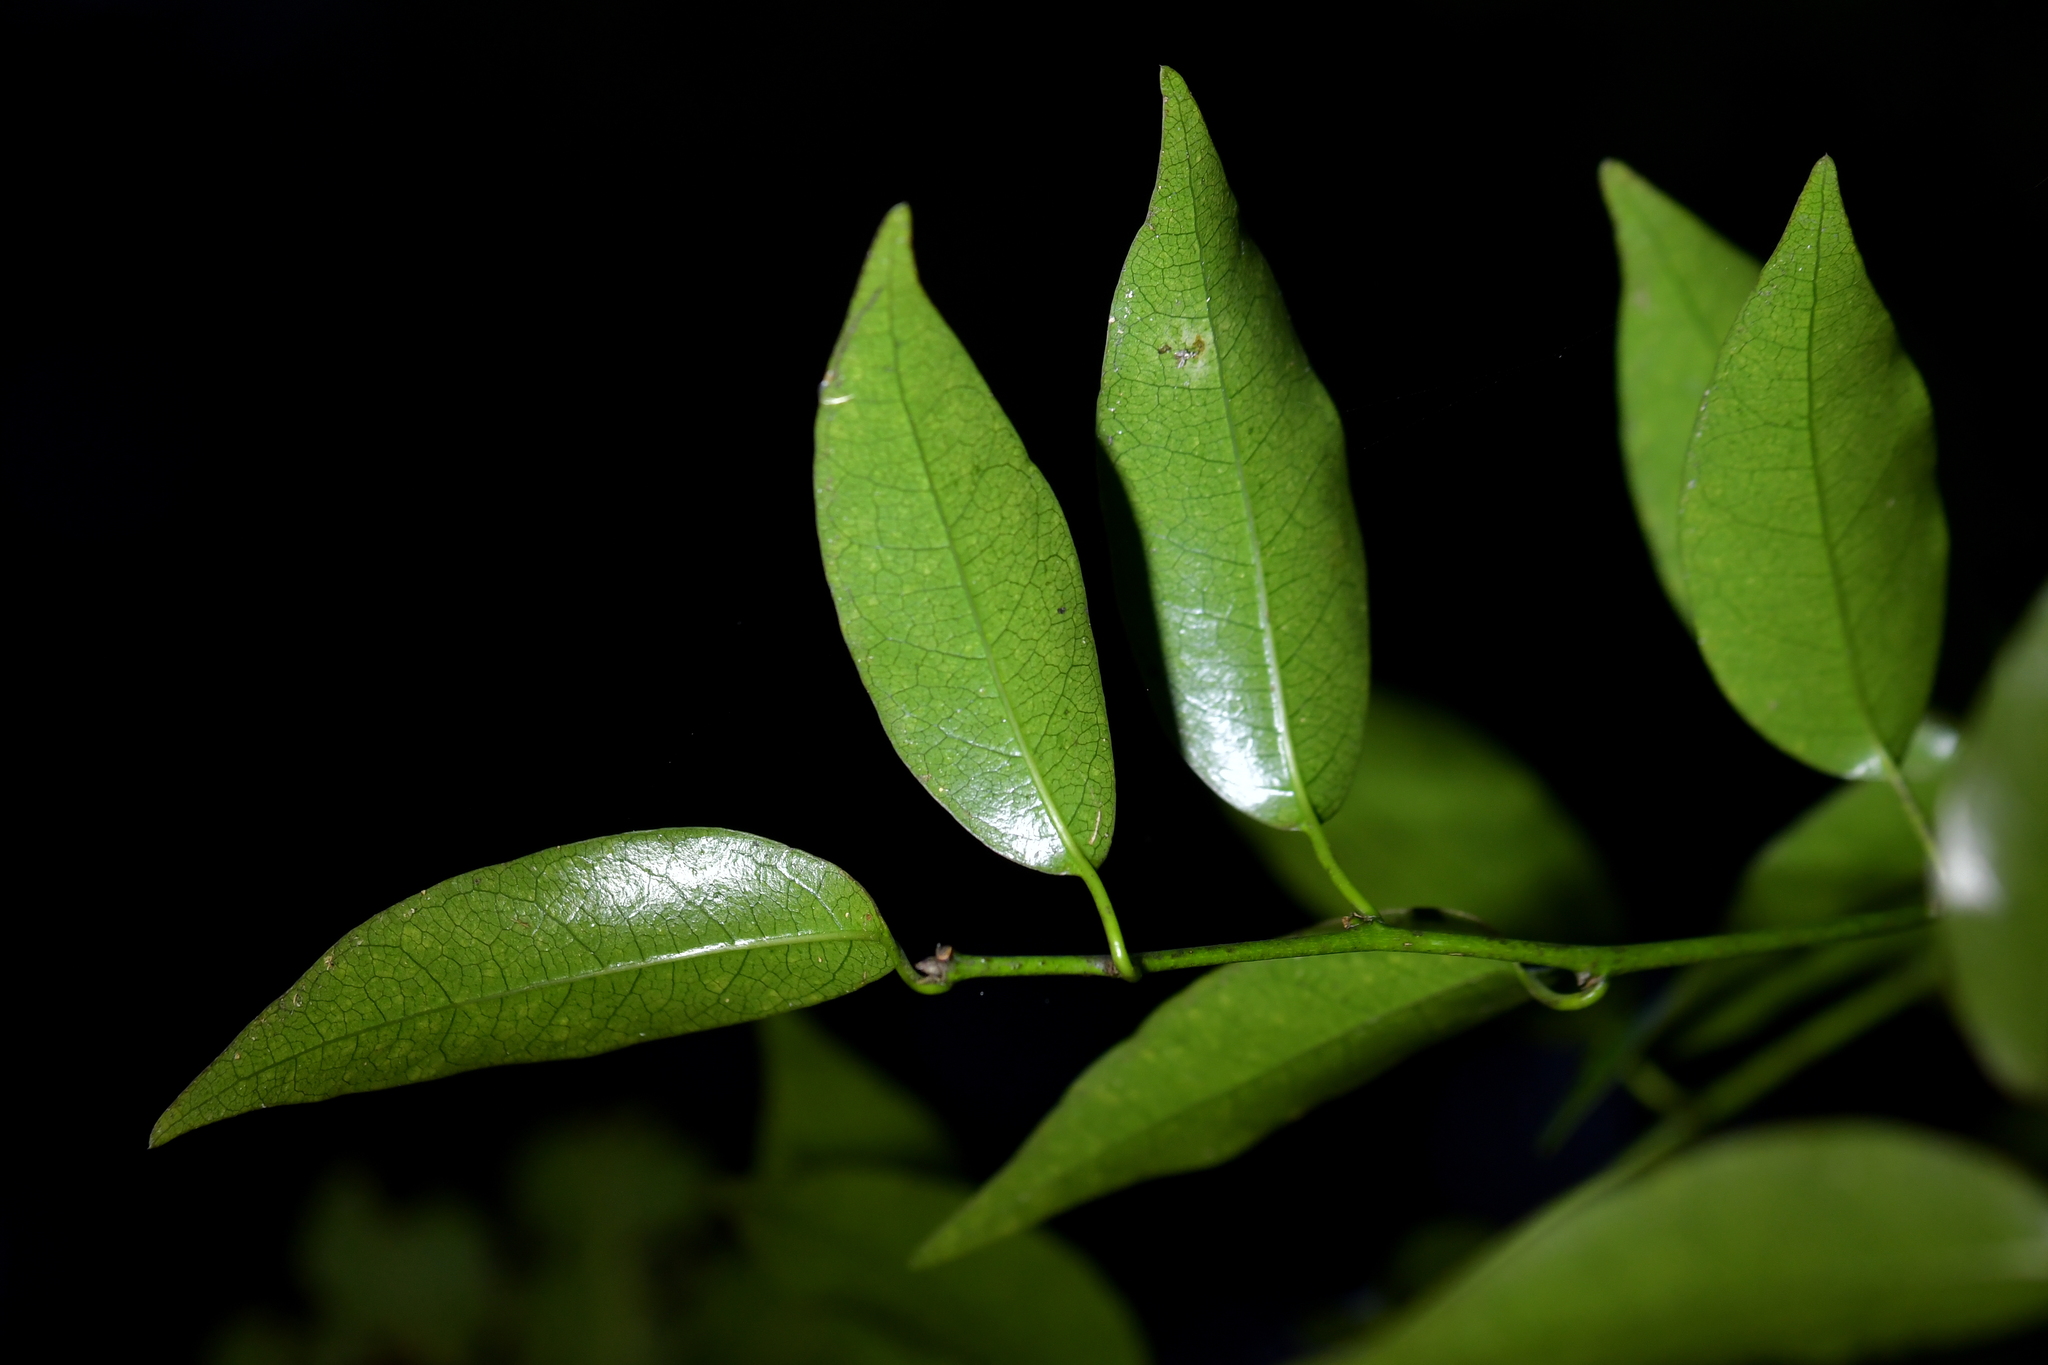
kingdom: Plantae
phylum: Tracheophyta
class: Magnoliopsida
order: Malpighiales
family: Passifloraceae
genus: Passiflora
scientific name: Passiflora tetrandra
